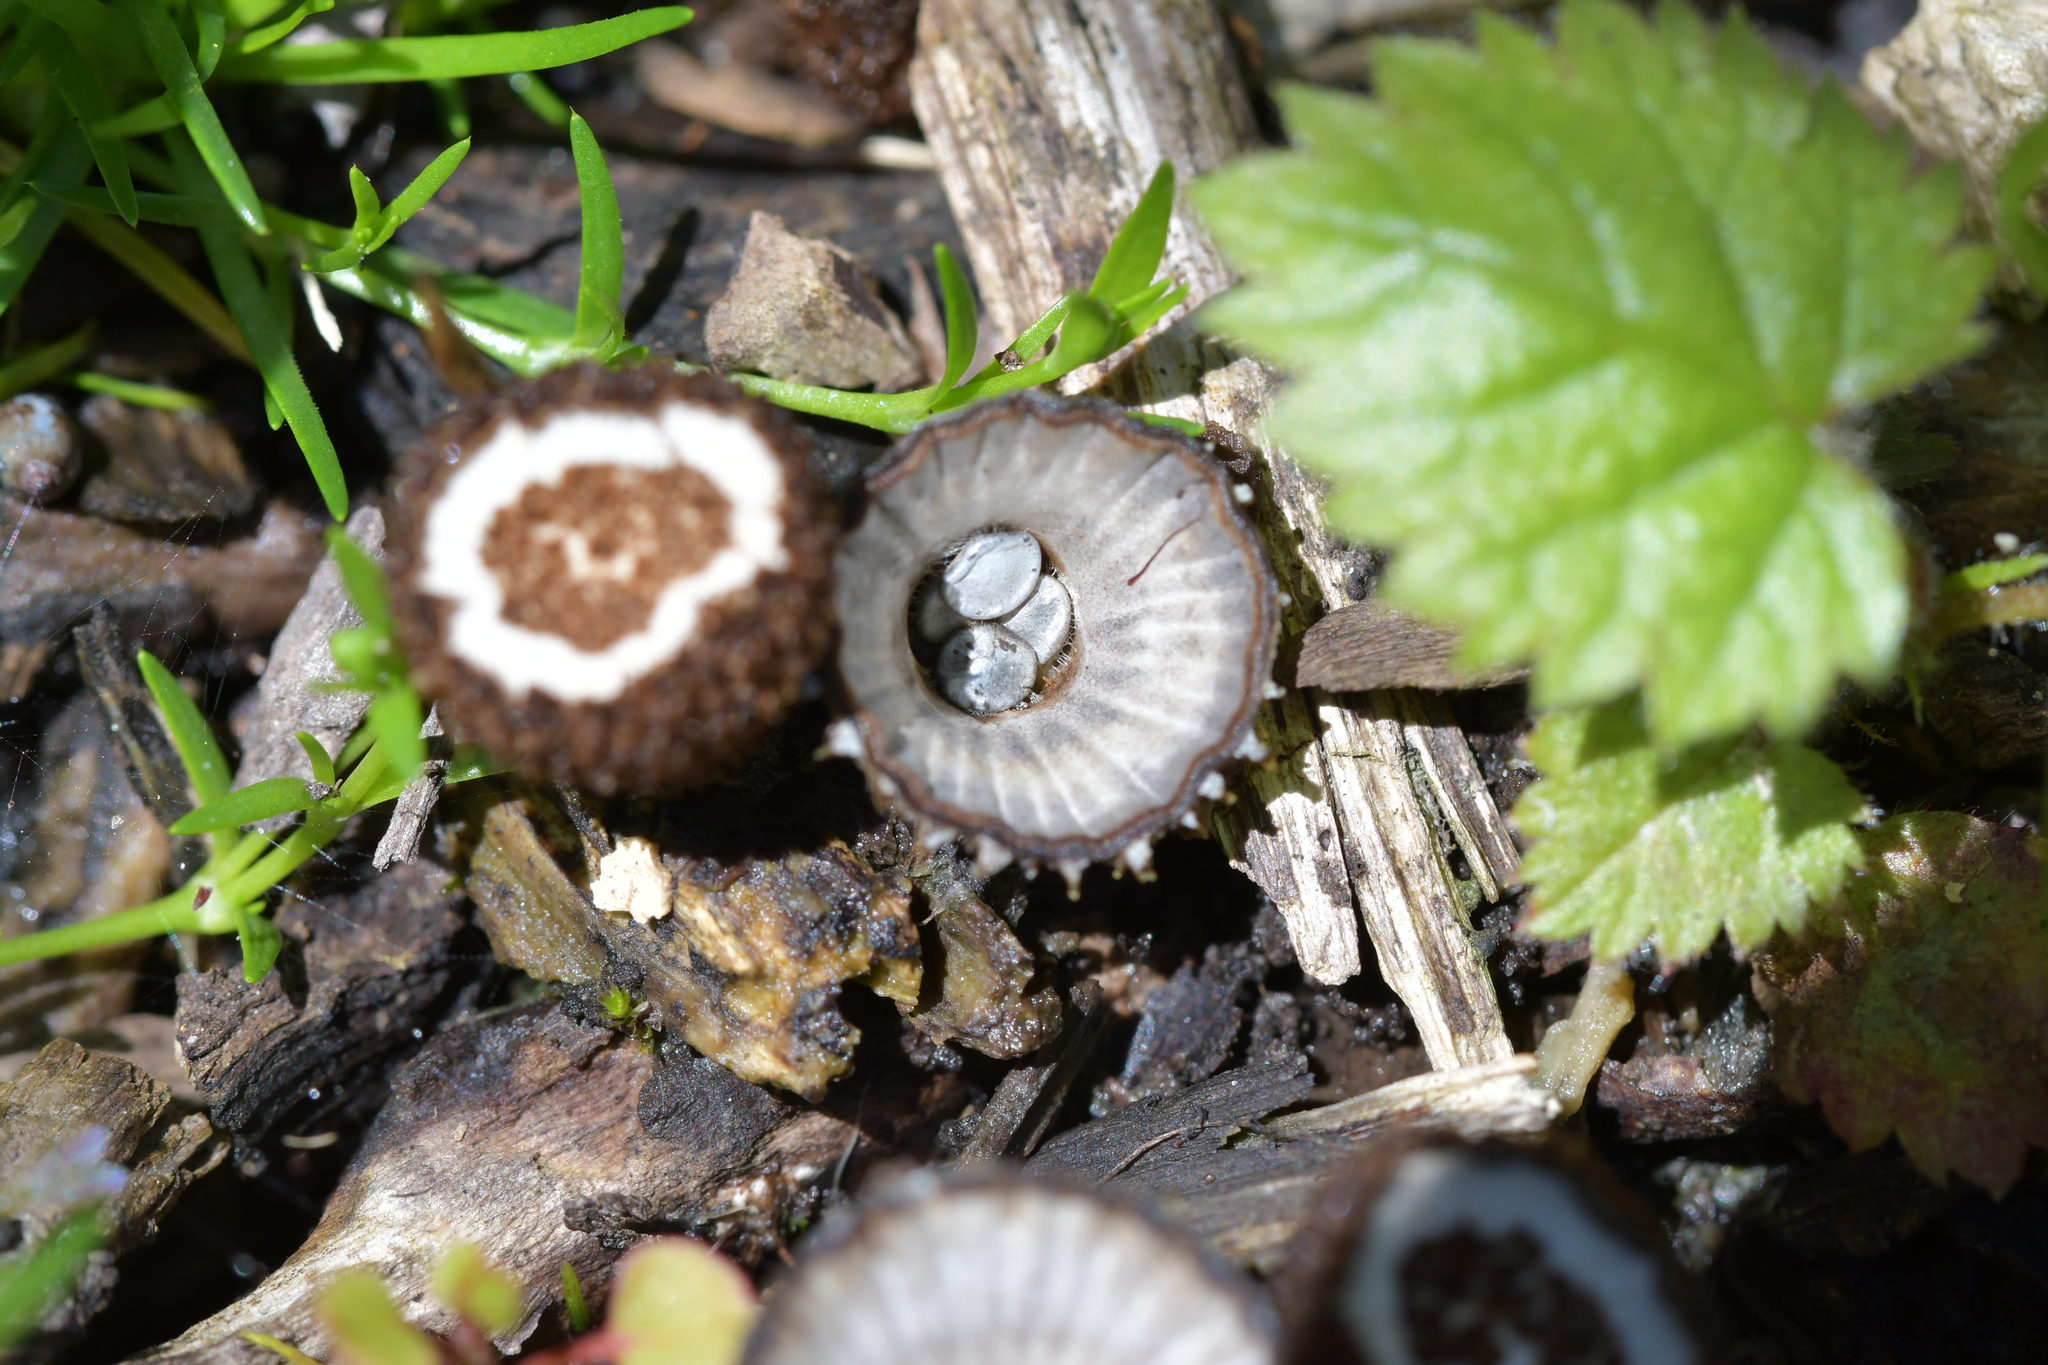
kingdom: Fungi
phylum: Basidiomycota
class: Agaricomycetes
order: Agaricales
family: Agaricaceae
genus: Cyathus
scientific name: Cyathus striatus
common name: Fluted bird's nest
